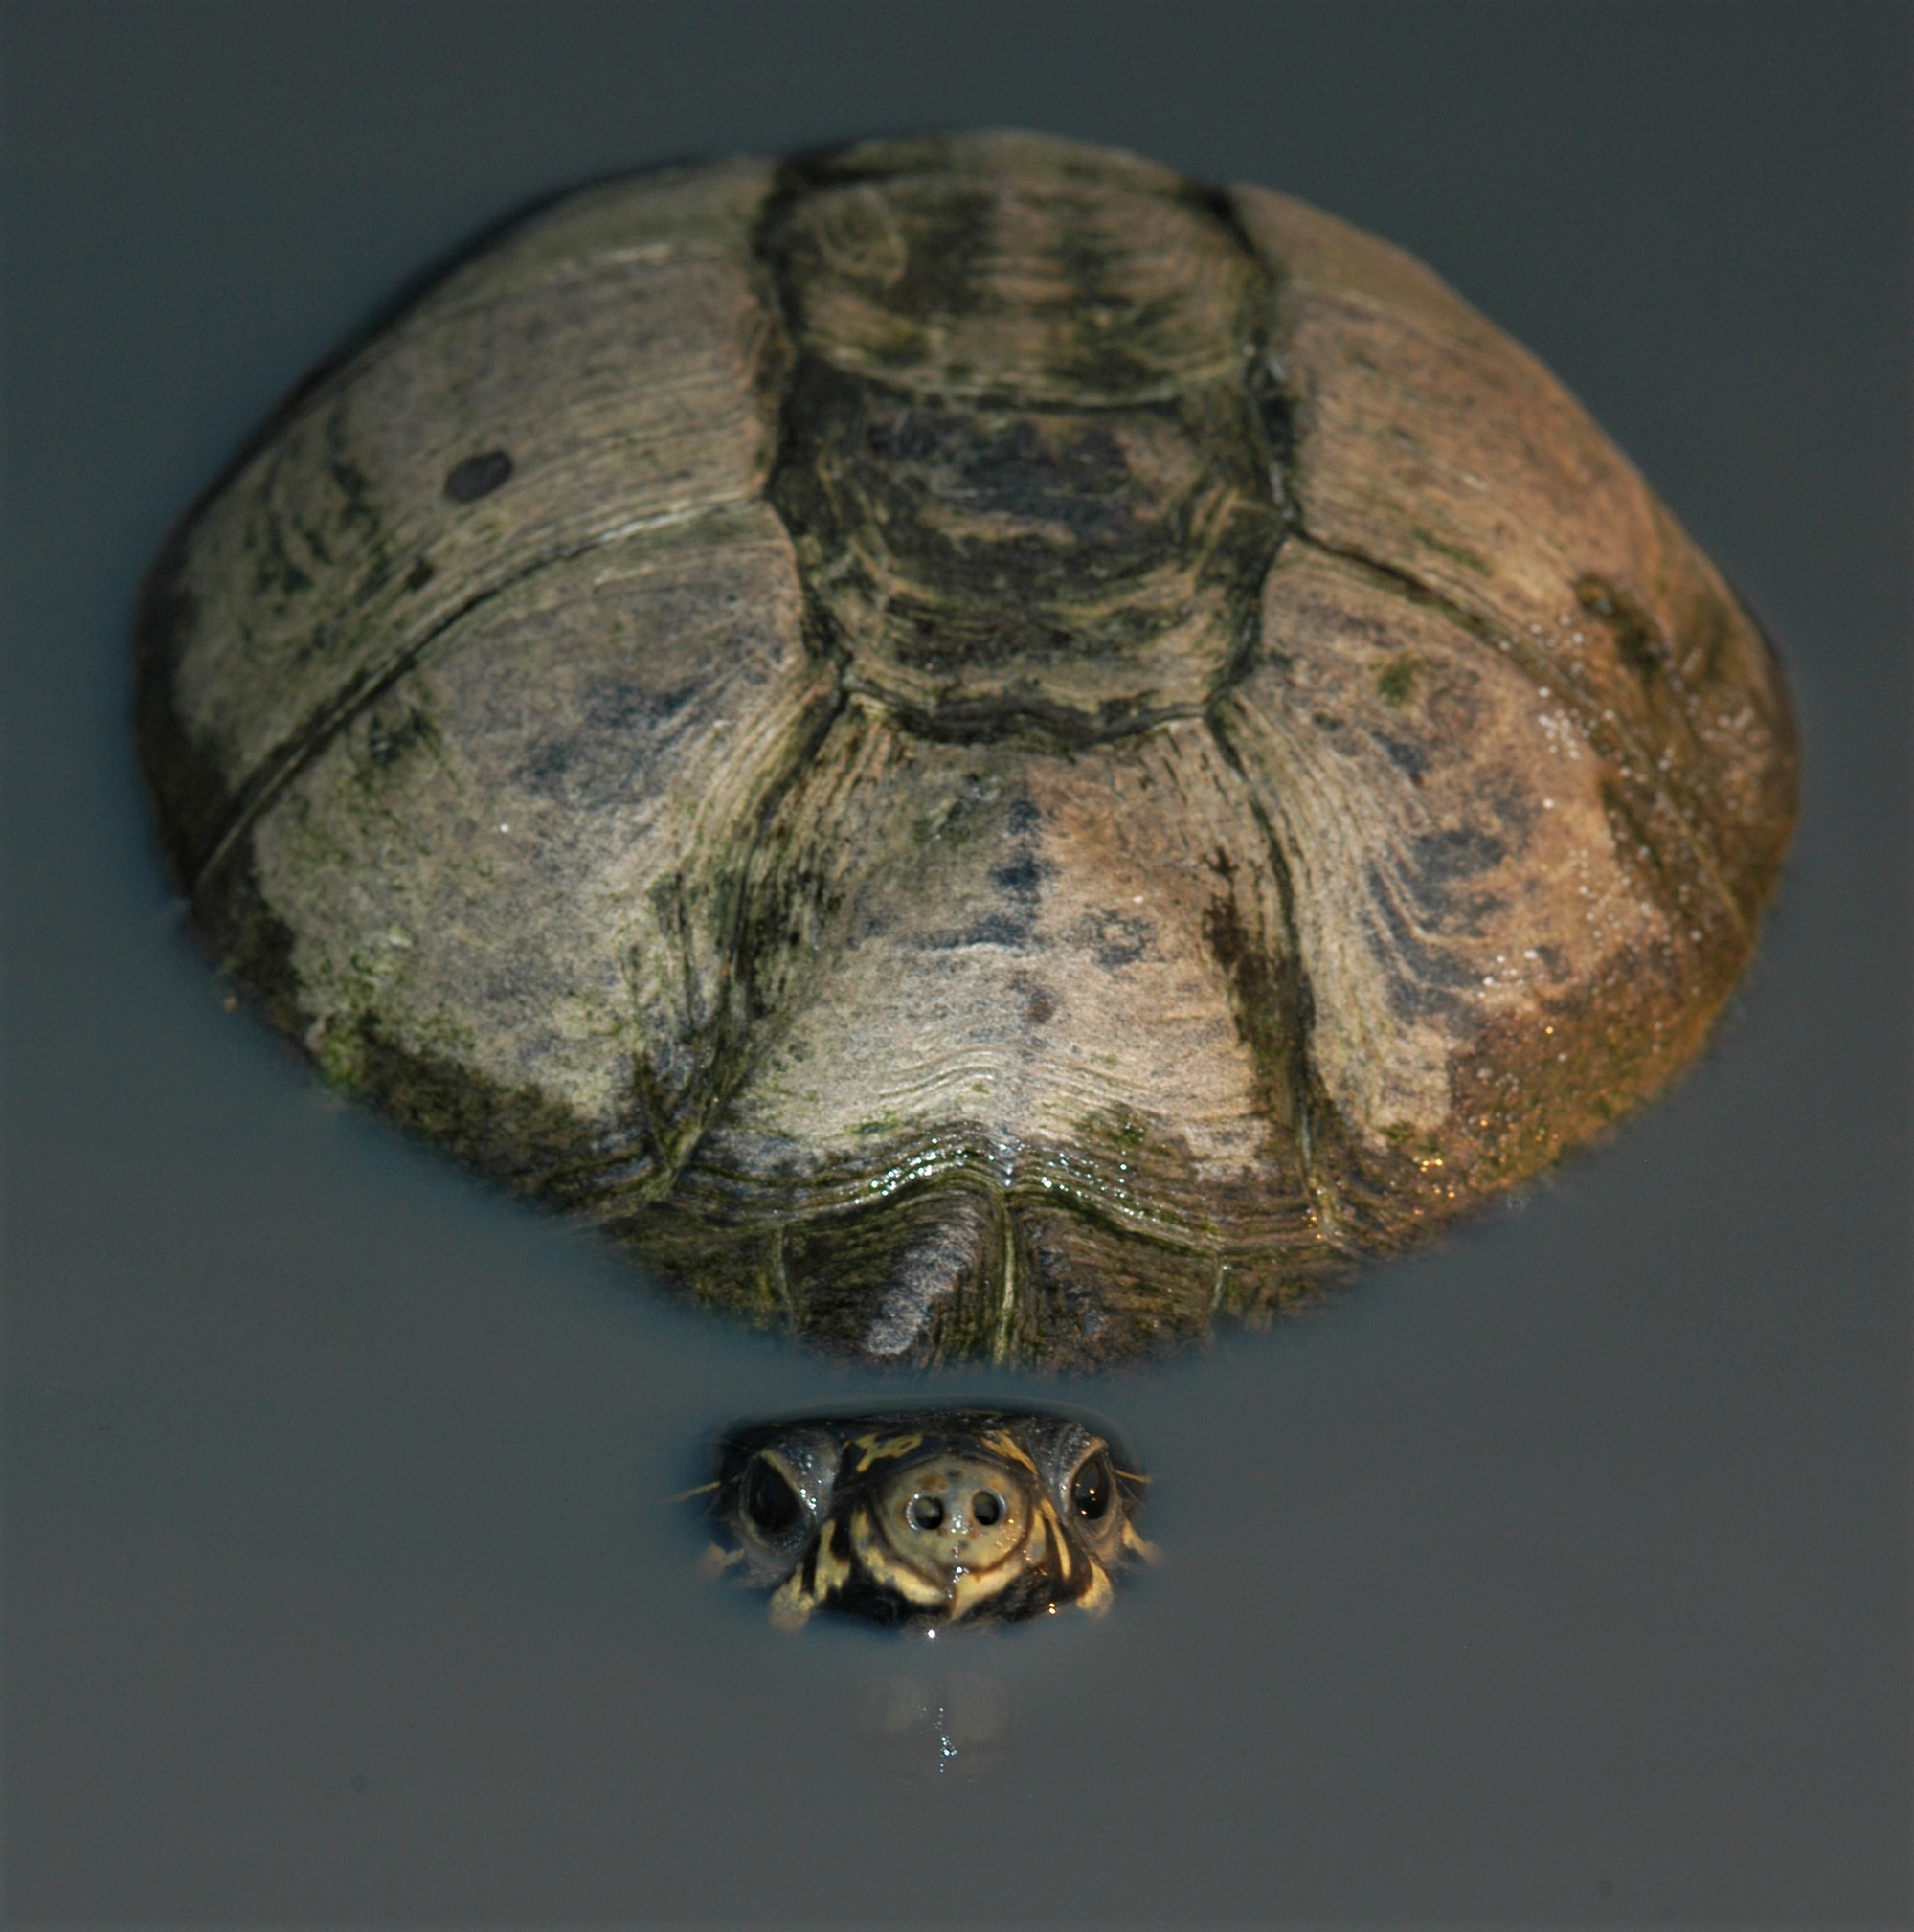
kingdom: Animalia
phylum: Chordata
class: Testudines
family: Pelomedusidae
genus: Pelusios
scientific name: Pelusios bechuanicus
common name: Okavango mud turtle
